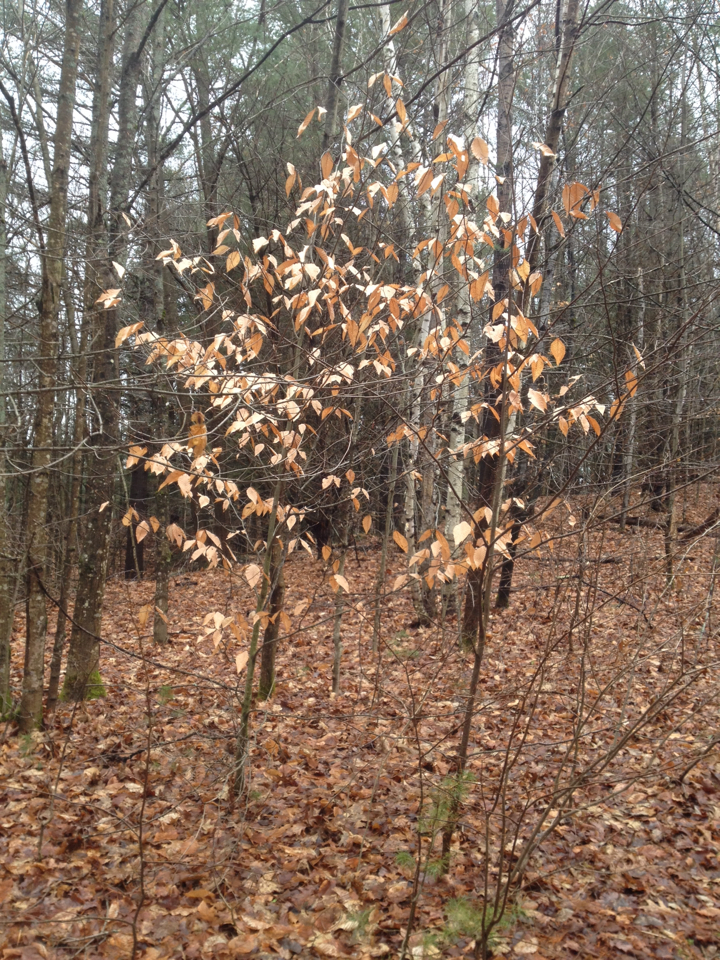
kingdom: Plantae
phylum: Tracheophyta
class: Magnoliopsida
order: Fagales
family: Fagaceae
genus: Fagus
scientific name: Fagus grandifolia
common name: American beech
